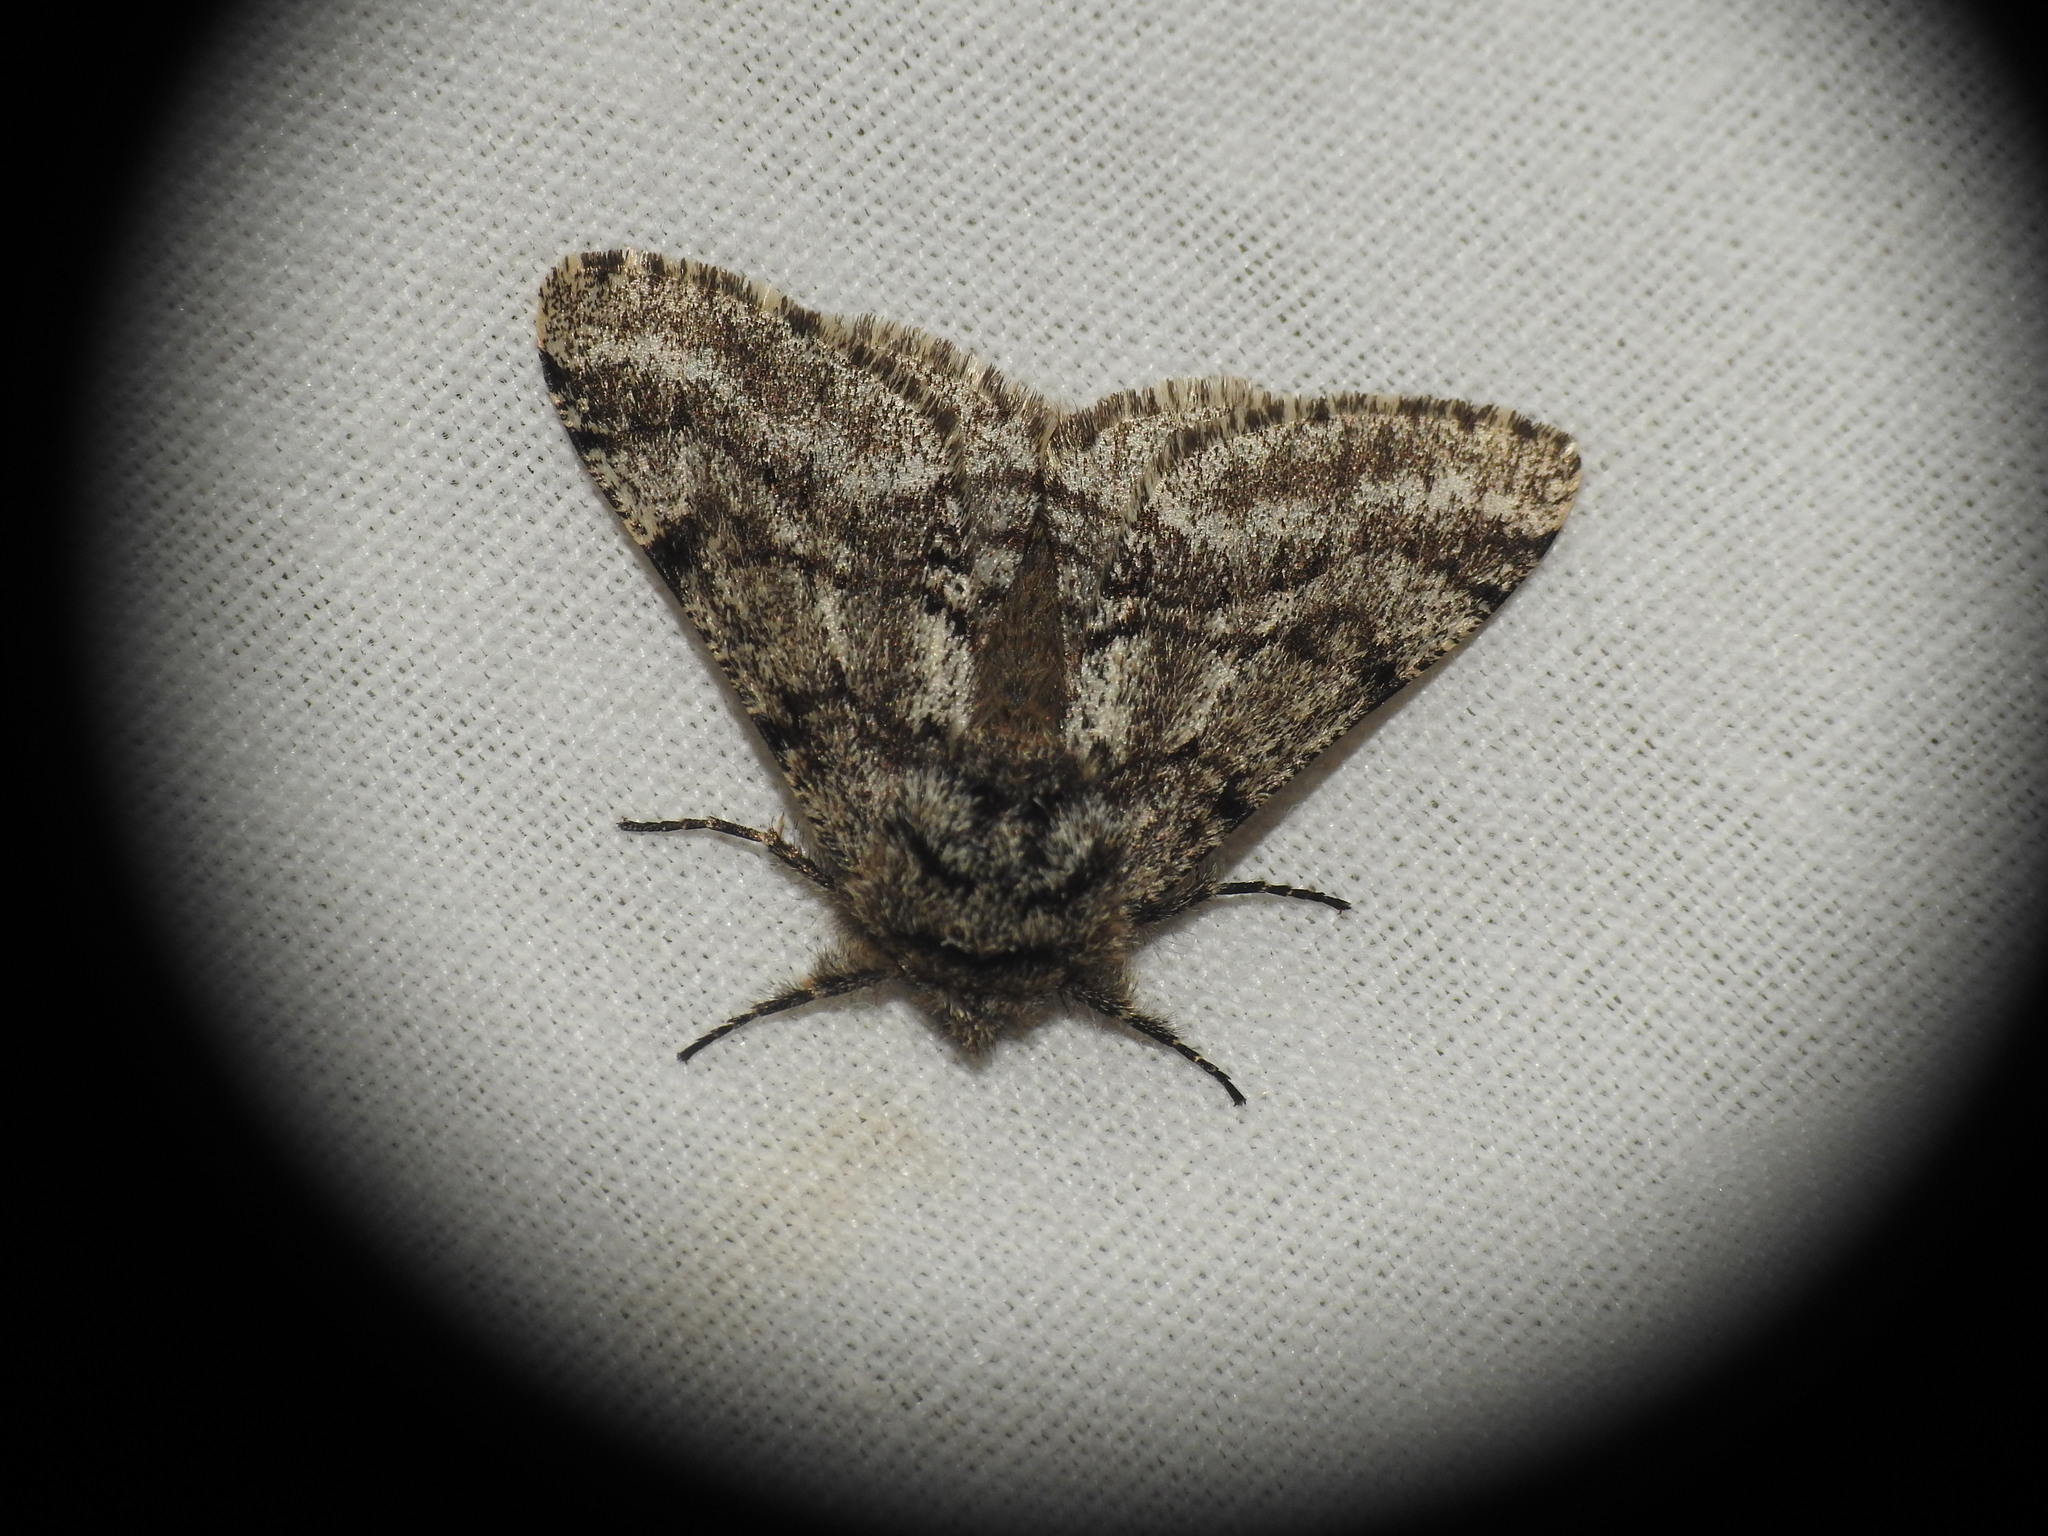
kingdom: Animalia
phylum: Arthropoda
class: Insecta
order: Lepidoptera
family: Geometridae
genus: Lycia
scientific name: Lycia hirtaria
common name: Brindled beauty
